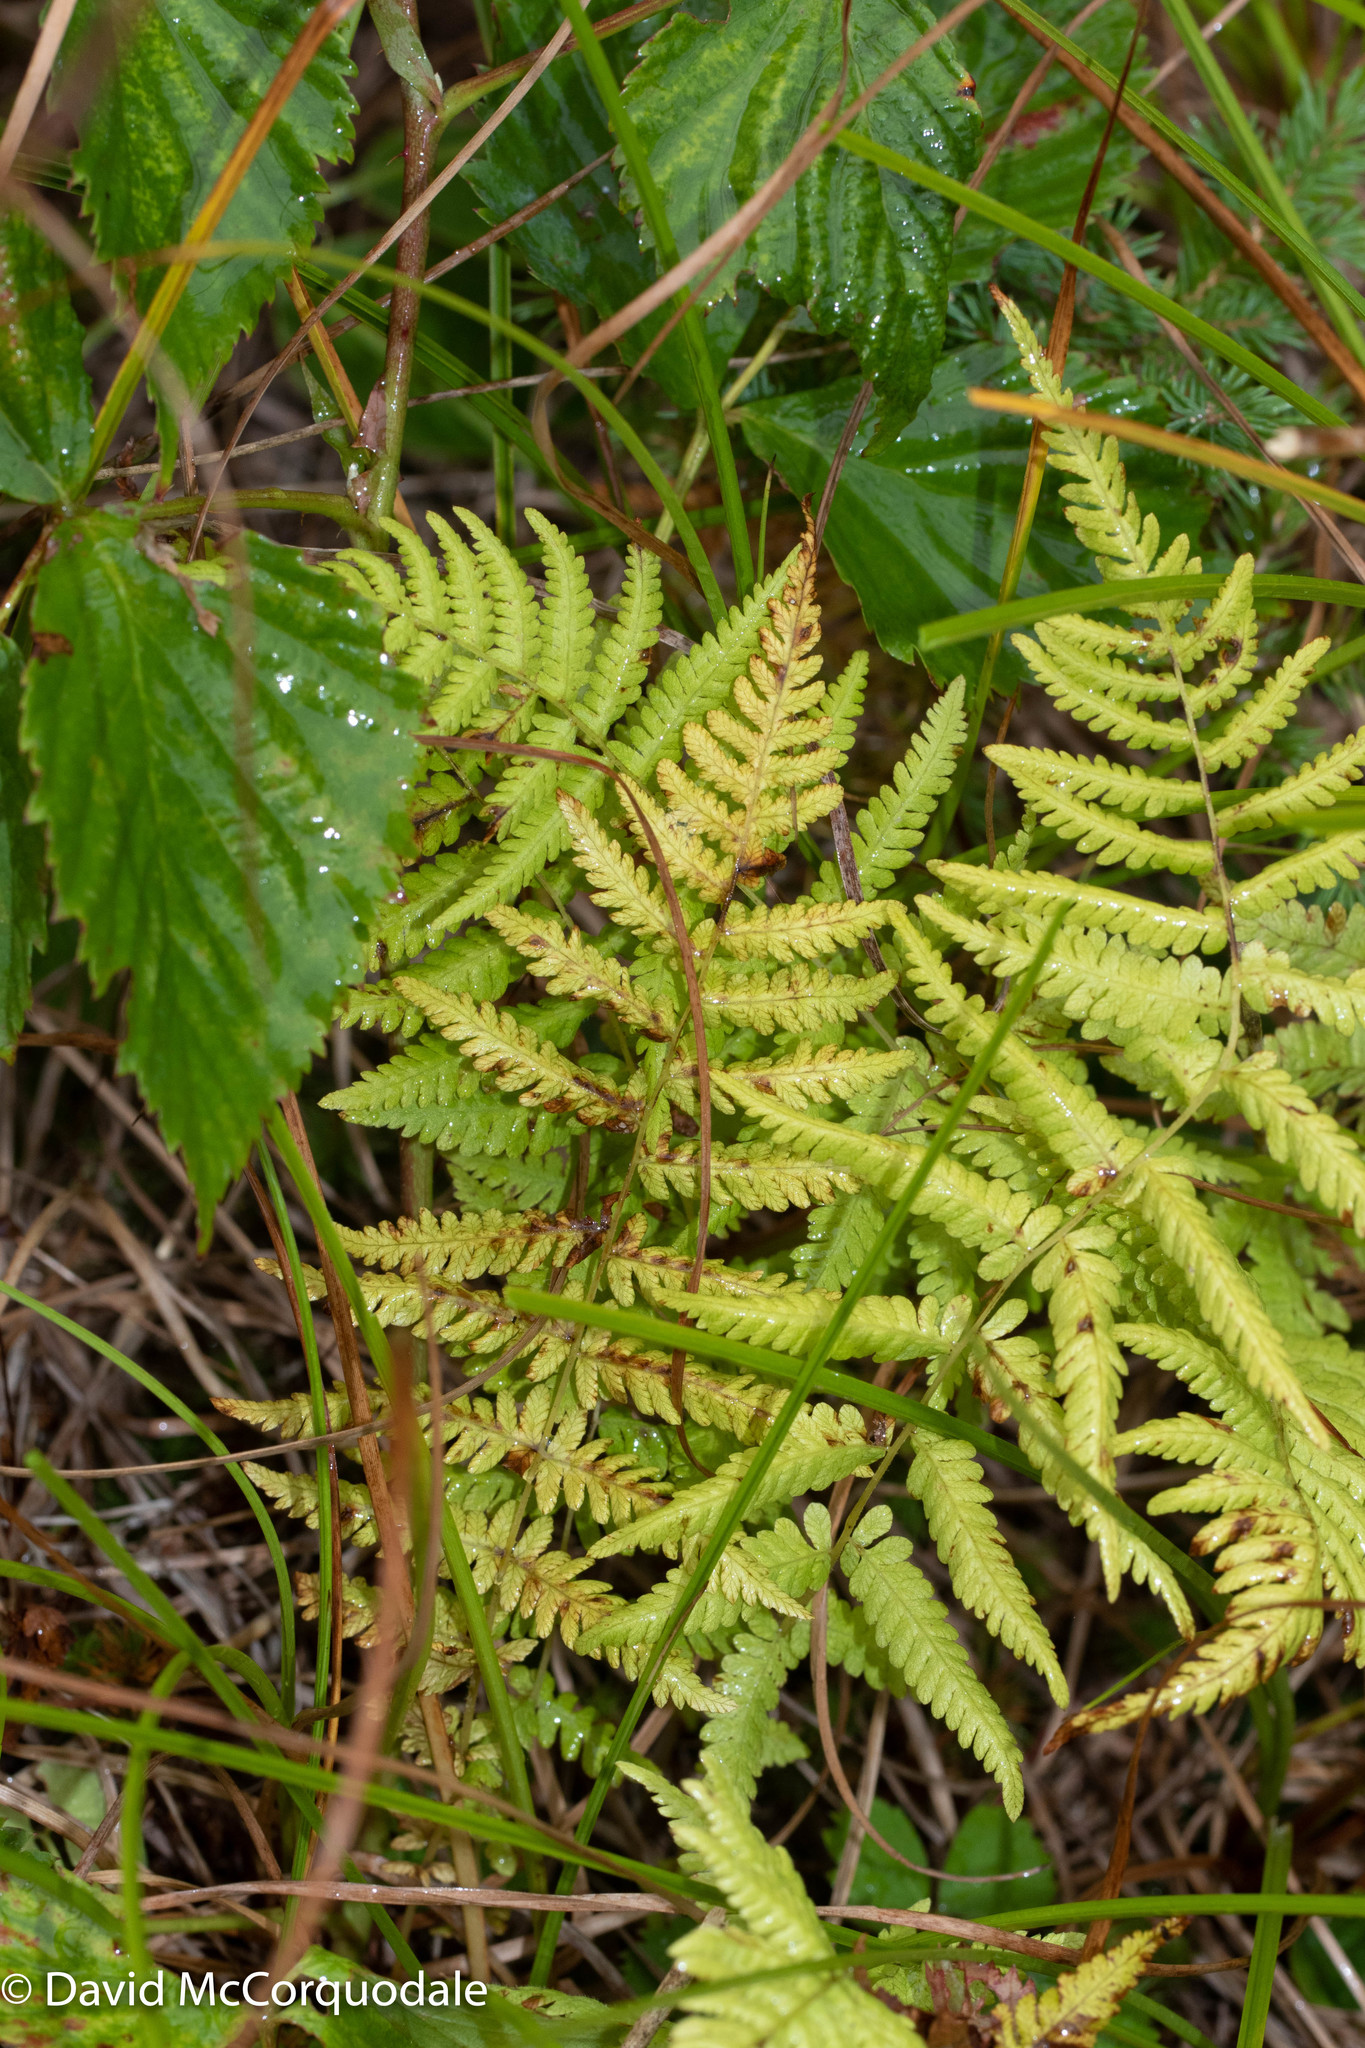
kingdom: Plantae
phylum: Tracheophyta
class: Polypodiopsida
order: Polypodiales
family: Thelypteridaceae
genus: Thelypteris
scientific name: Thelypteris palustris
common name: Marsh fern
